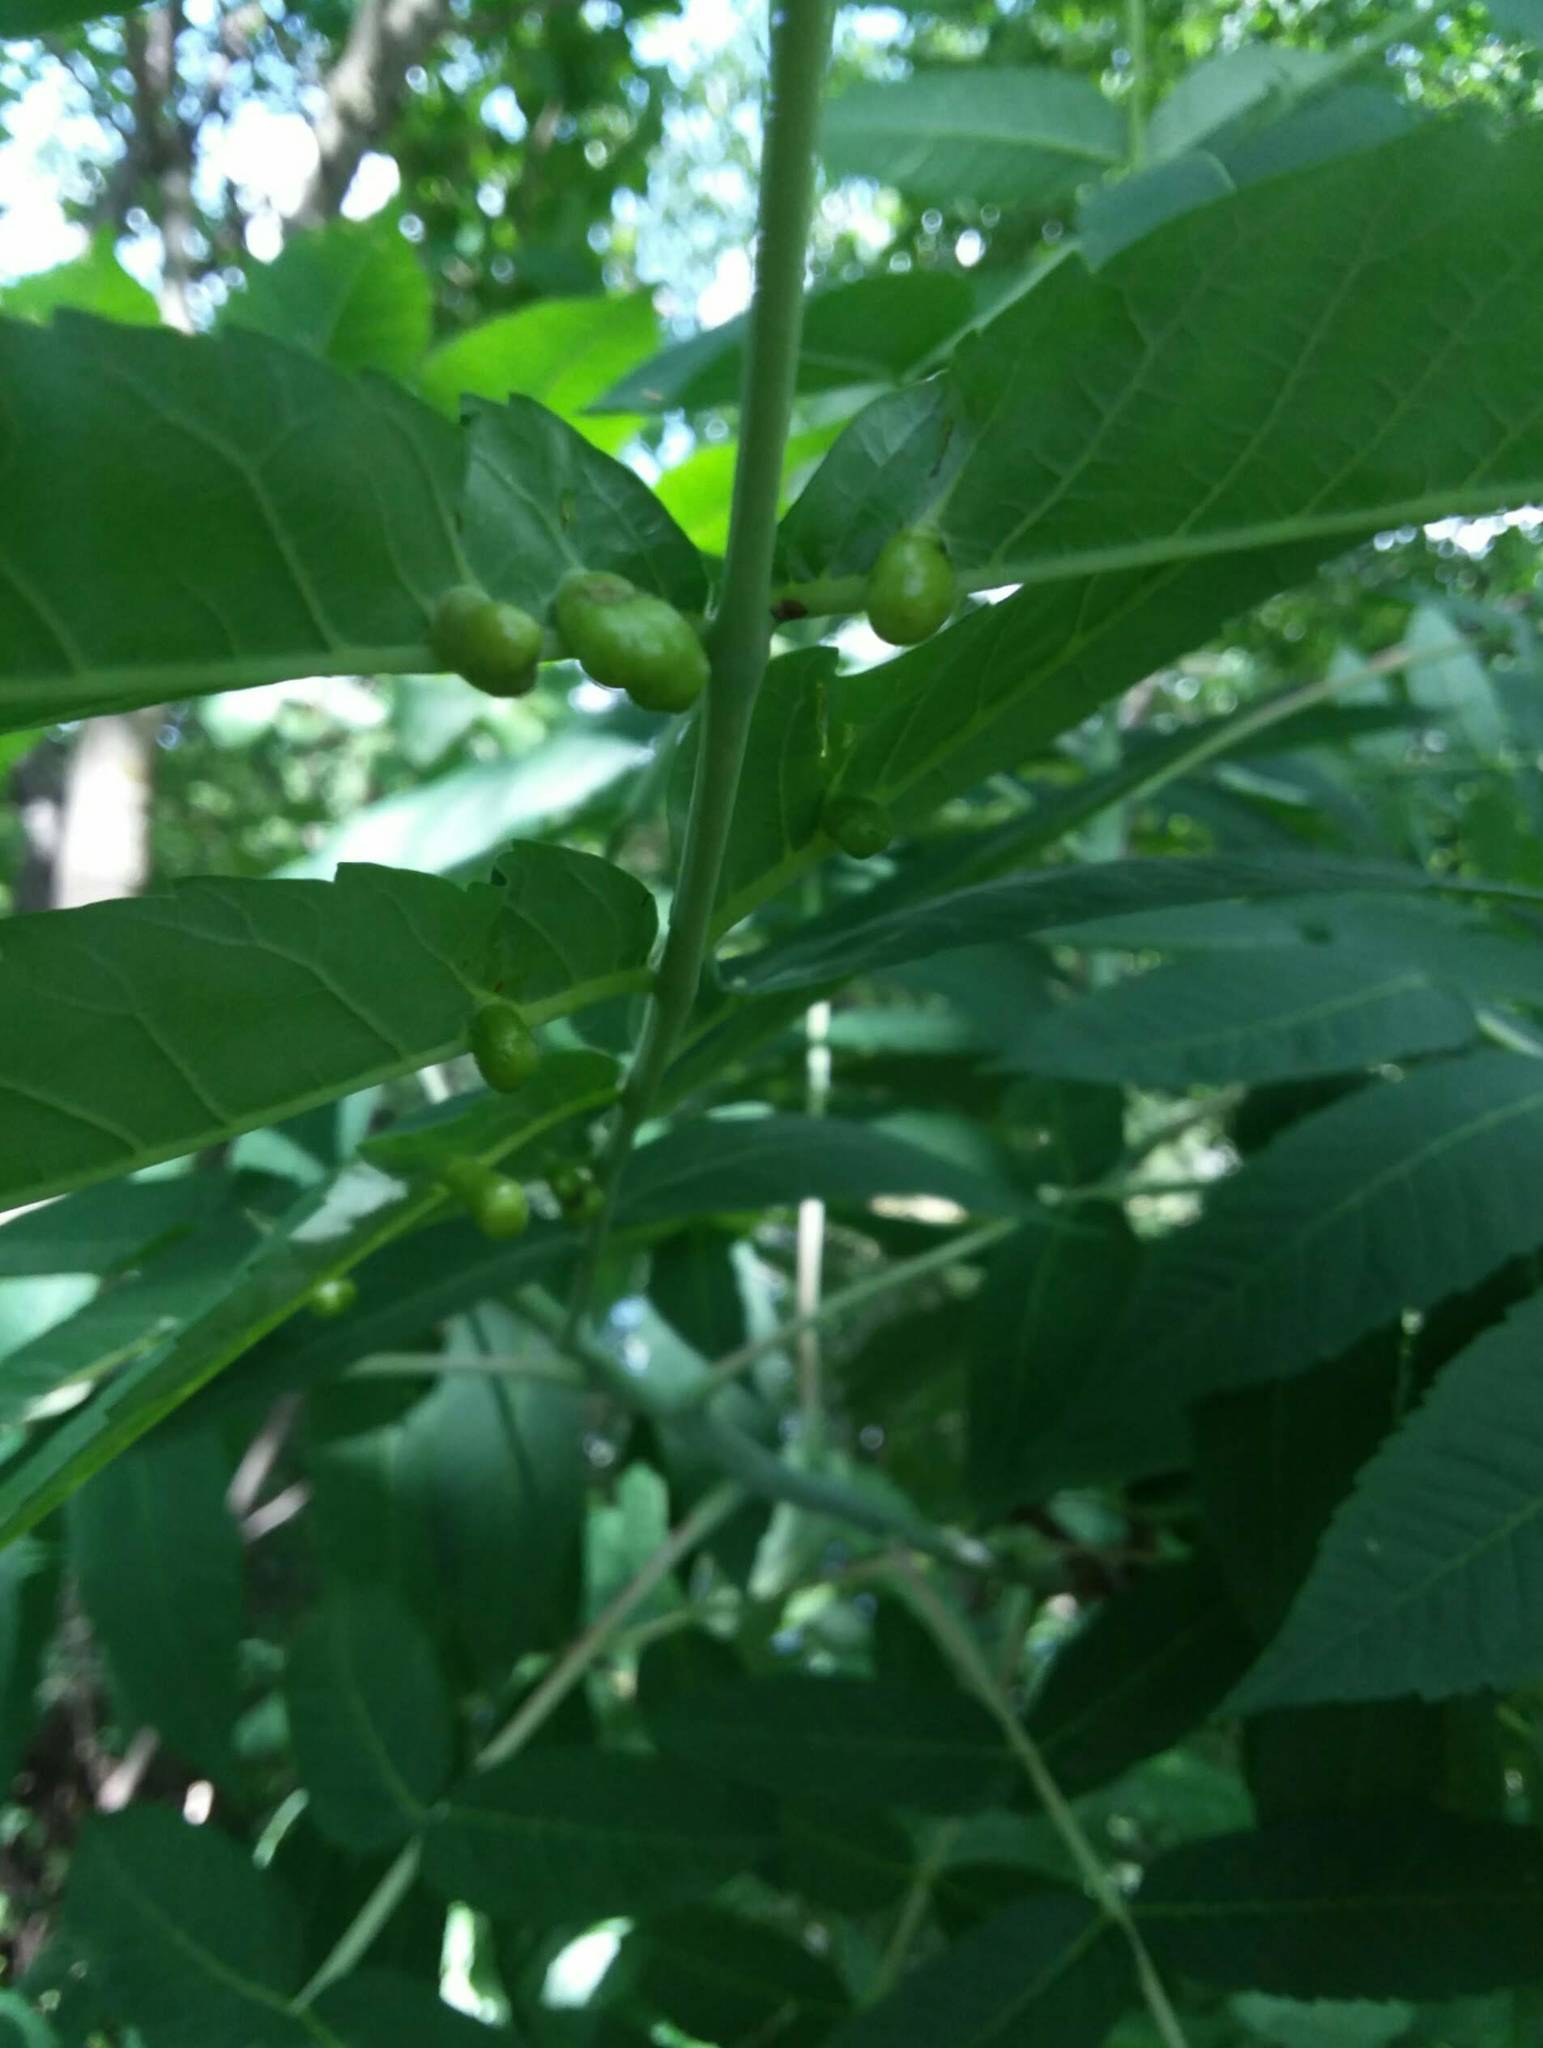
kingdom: Animalia
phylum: Arthropoda
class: Insecta
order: Hemiptera
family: Aphididae
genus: Melaphis
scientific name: Melaphis rhois
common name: Sumac gall aphid
